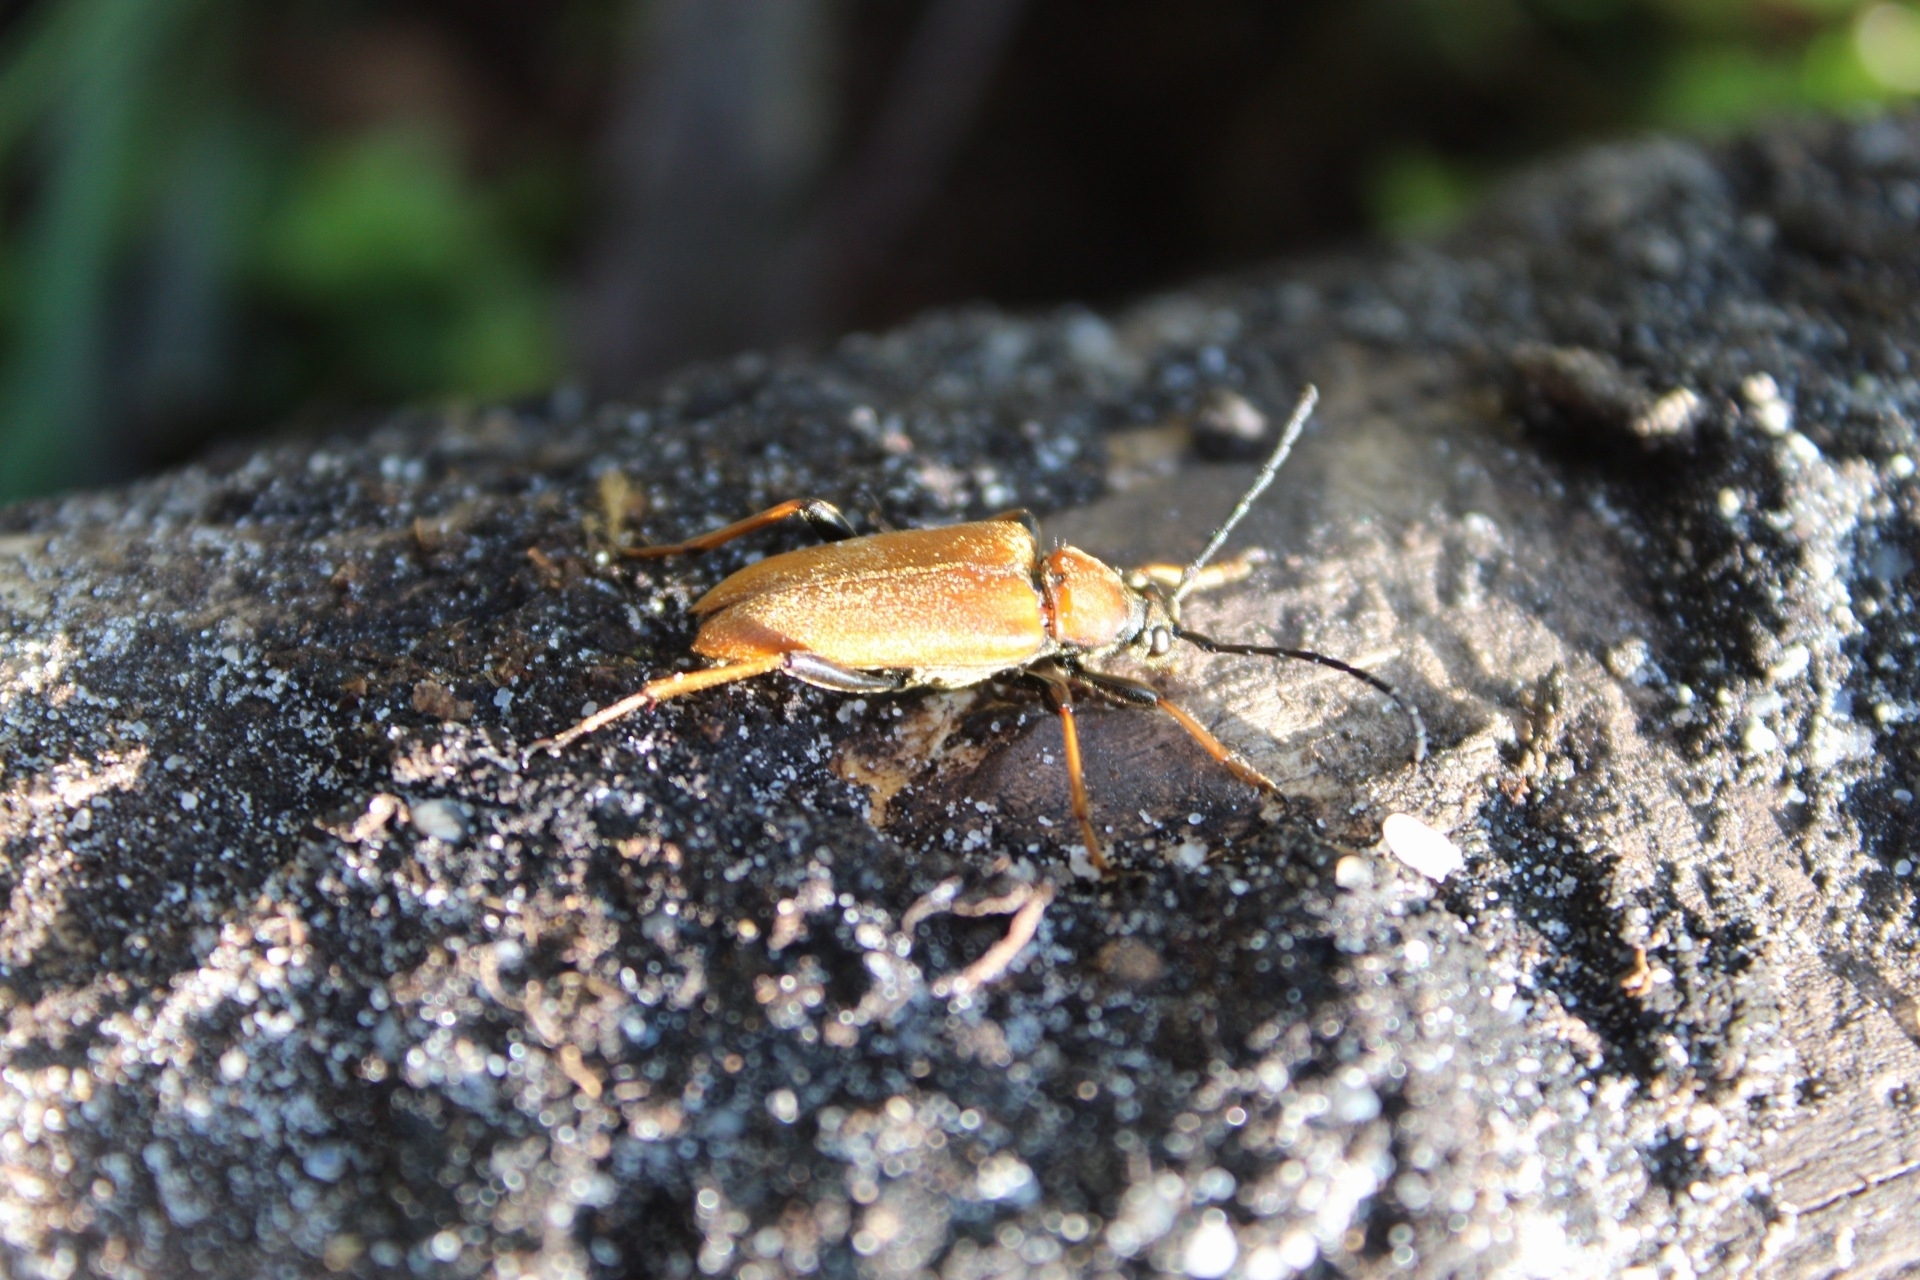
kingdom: Animalia
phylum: Arthropoda
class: Insecta
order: Coleoptera
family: Cerambycidae
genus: Stictoleptura
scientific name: Stictoleptura rubra
